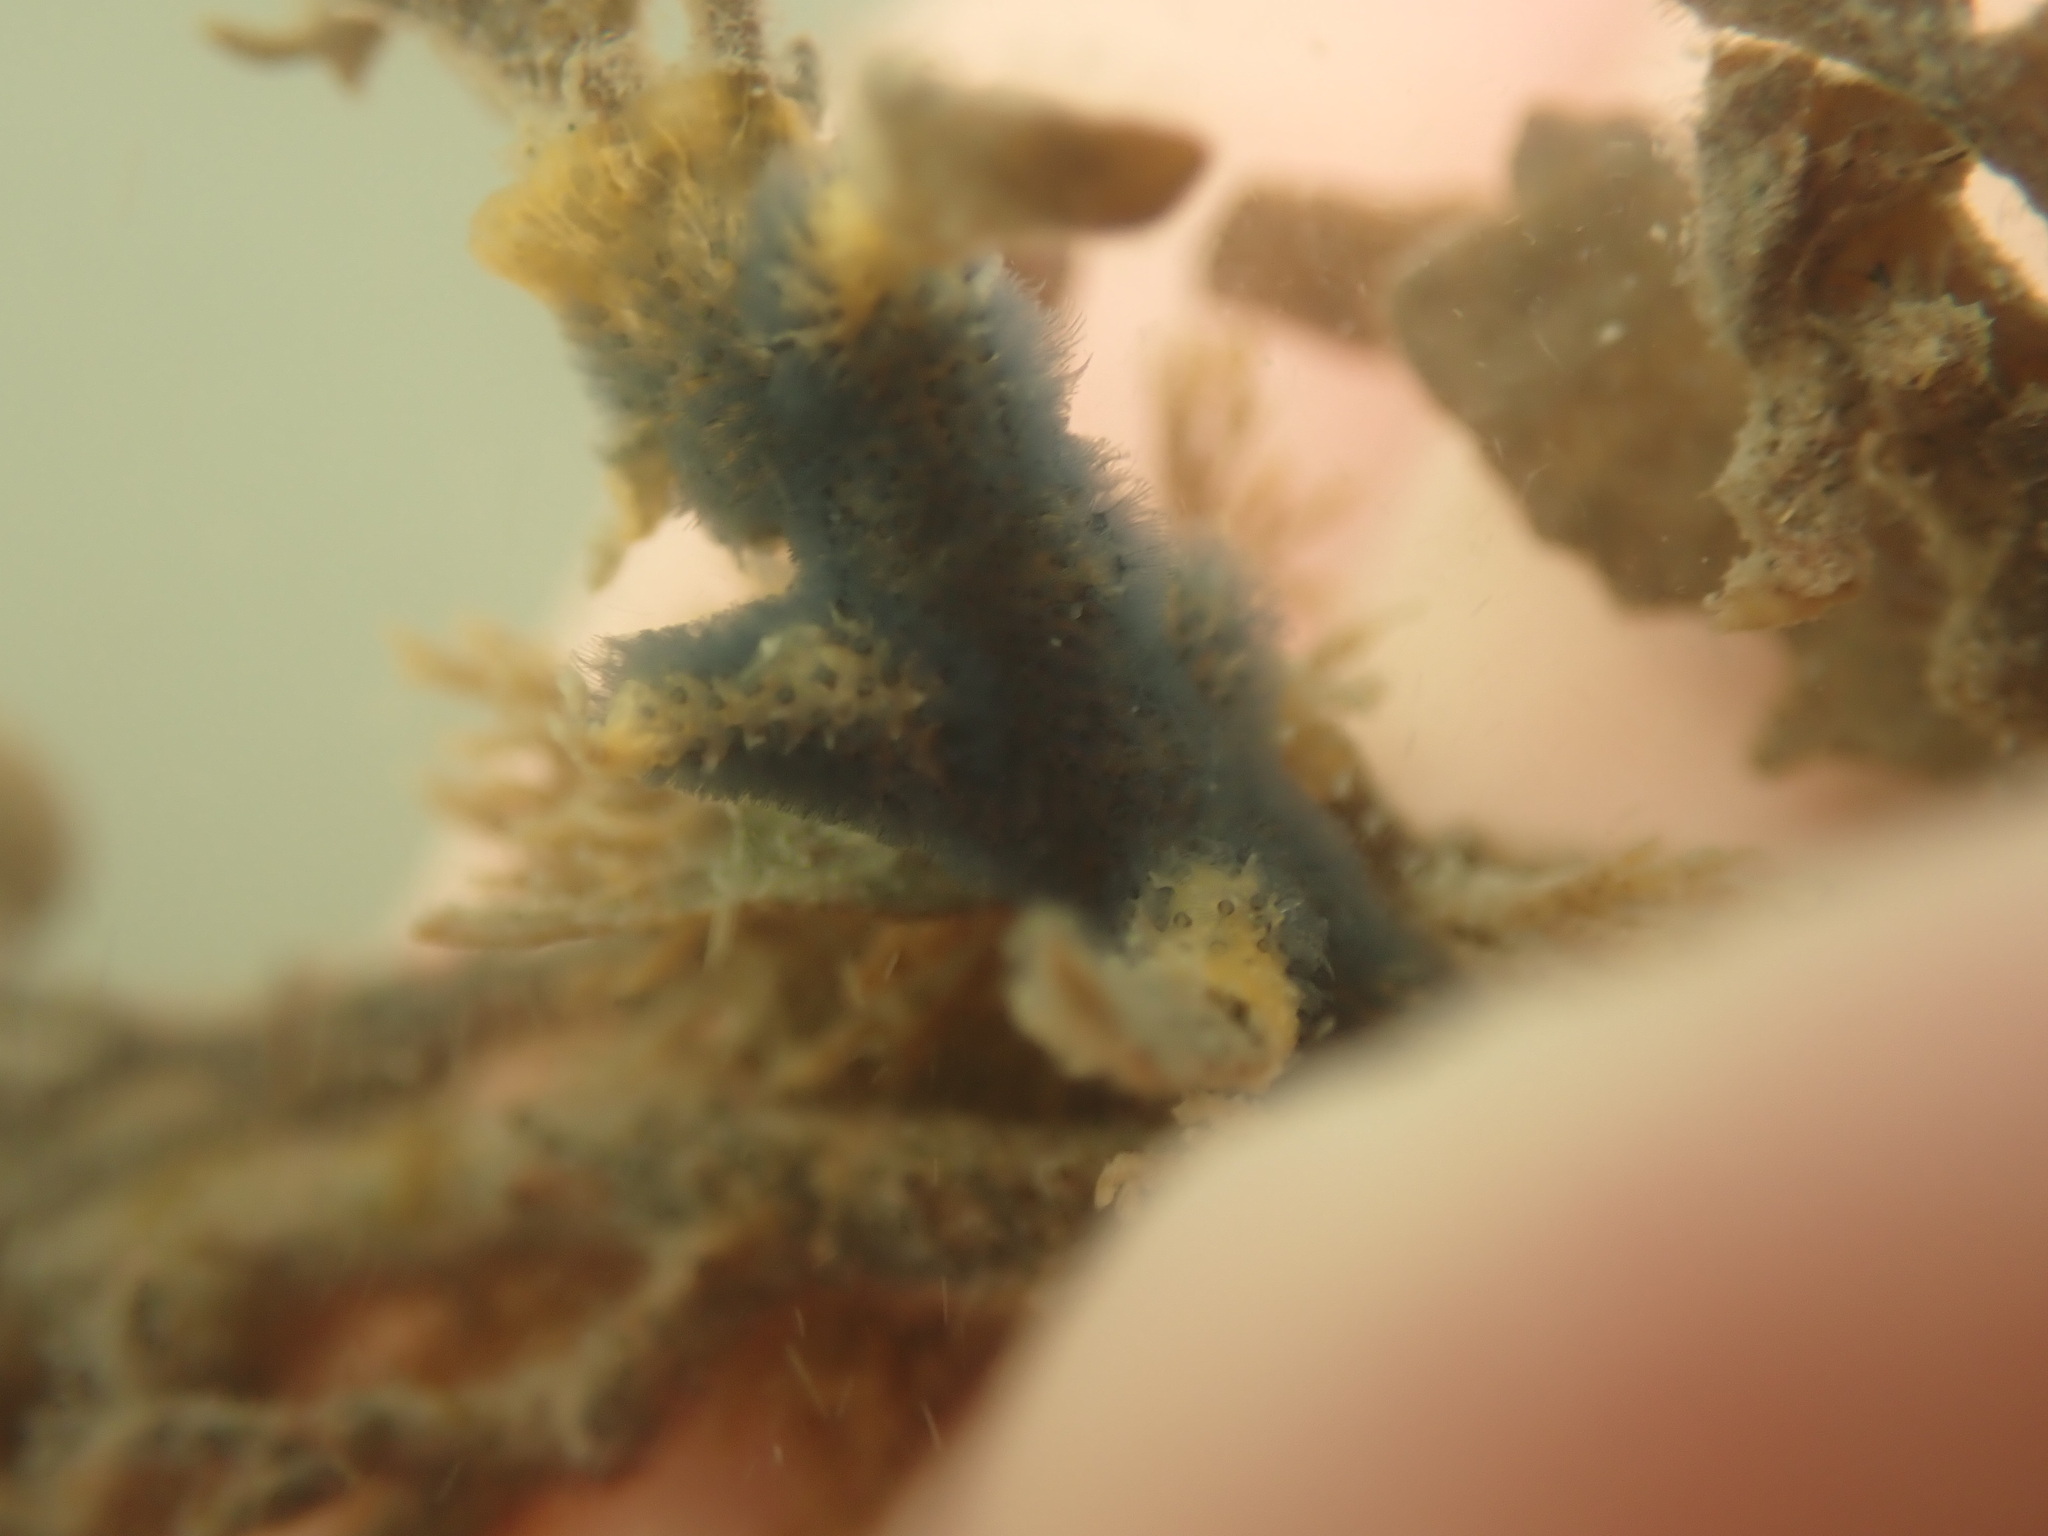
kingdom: Animalia
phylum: Bryozoa
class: Gymnolaemata
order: Cheilostomatida
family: Celleporidae
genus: Celleporaria
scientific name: Celleporaria nodulosa
